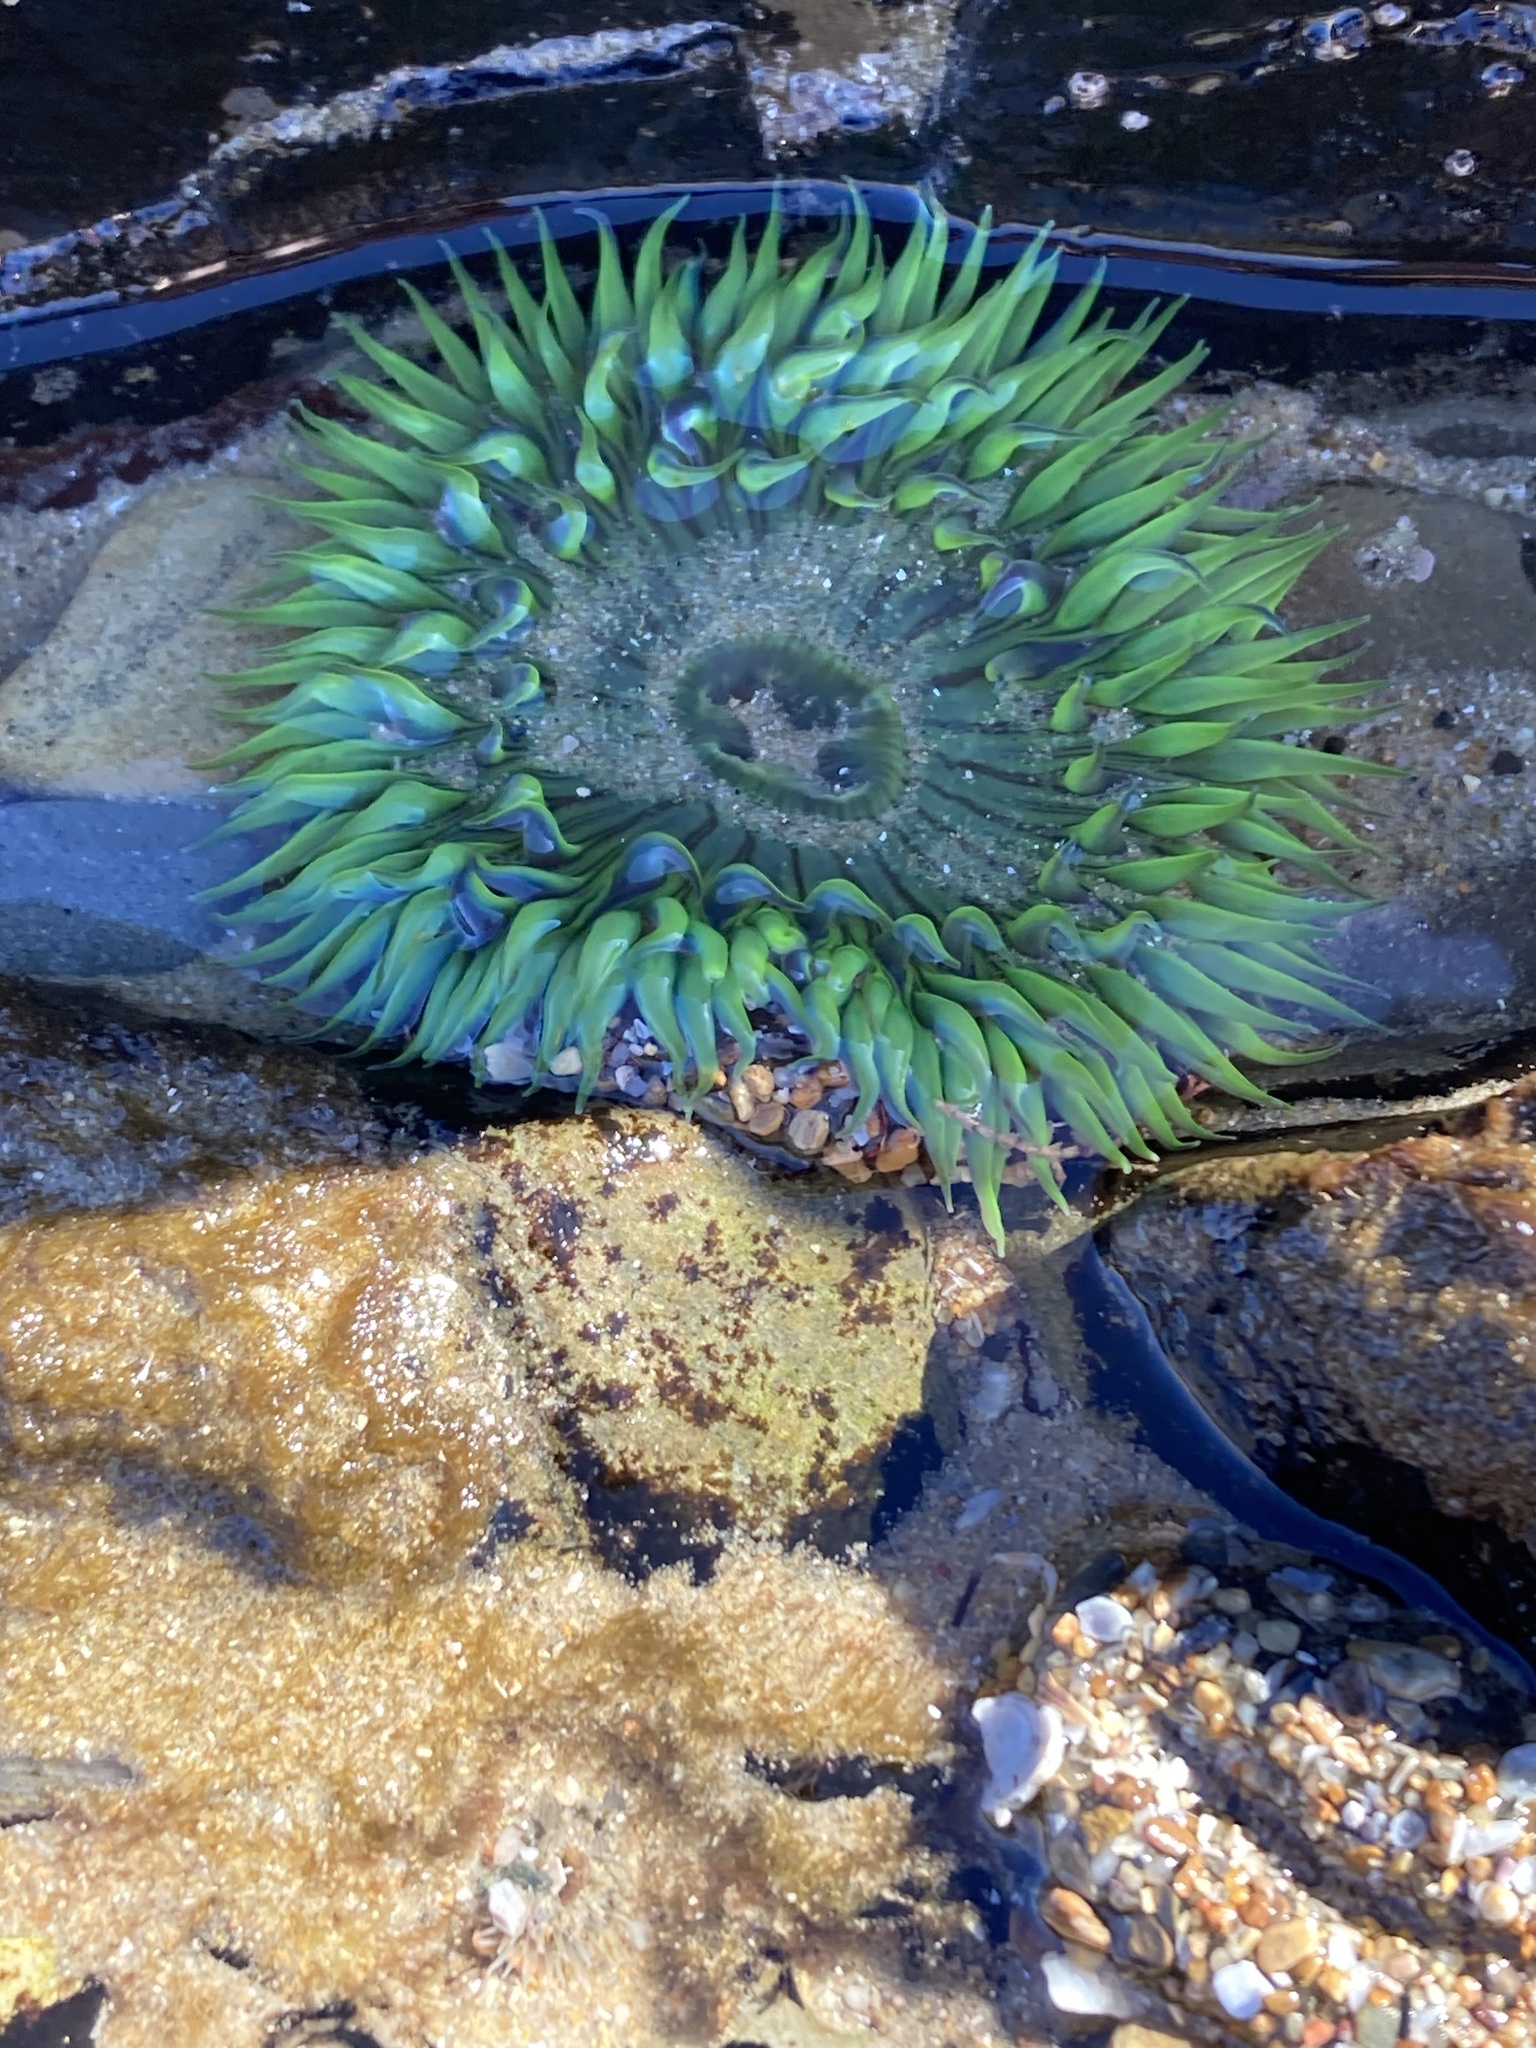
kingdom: Animalia
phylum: Cnidaria
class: Anthozoa
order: Actiniaria
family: Actiniidae
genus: Anthopleura
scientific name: Anthopleura sola
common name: Sun anemone
